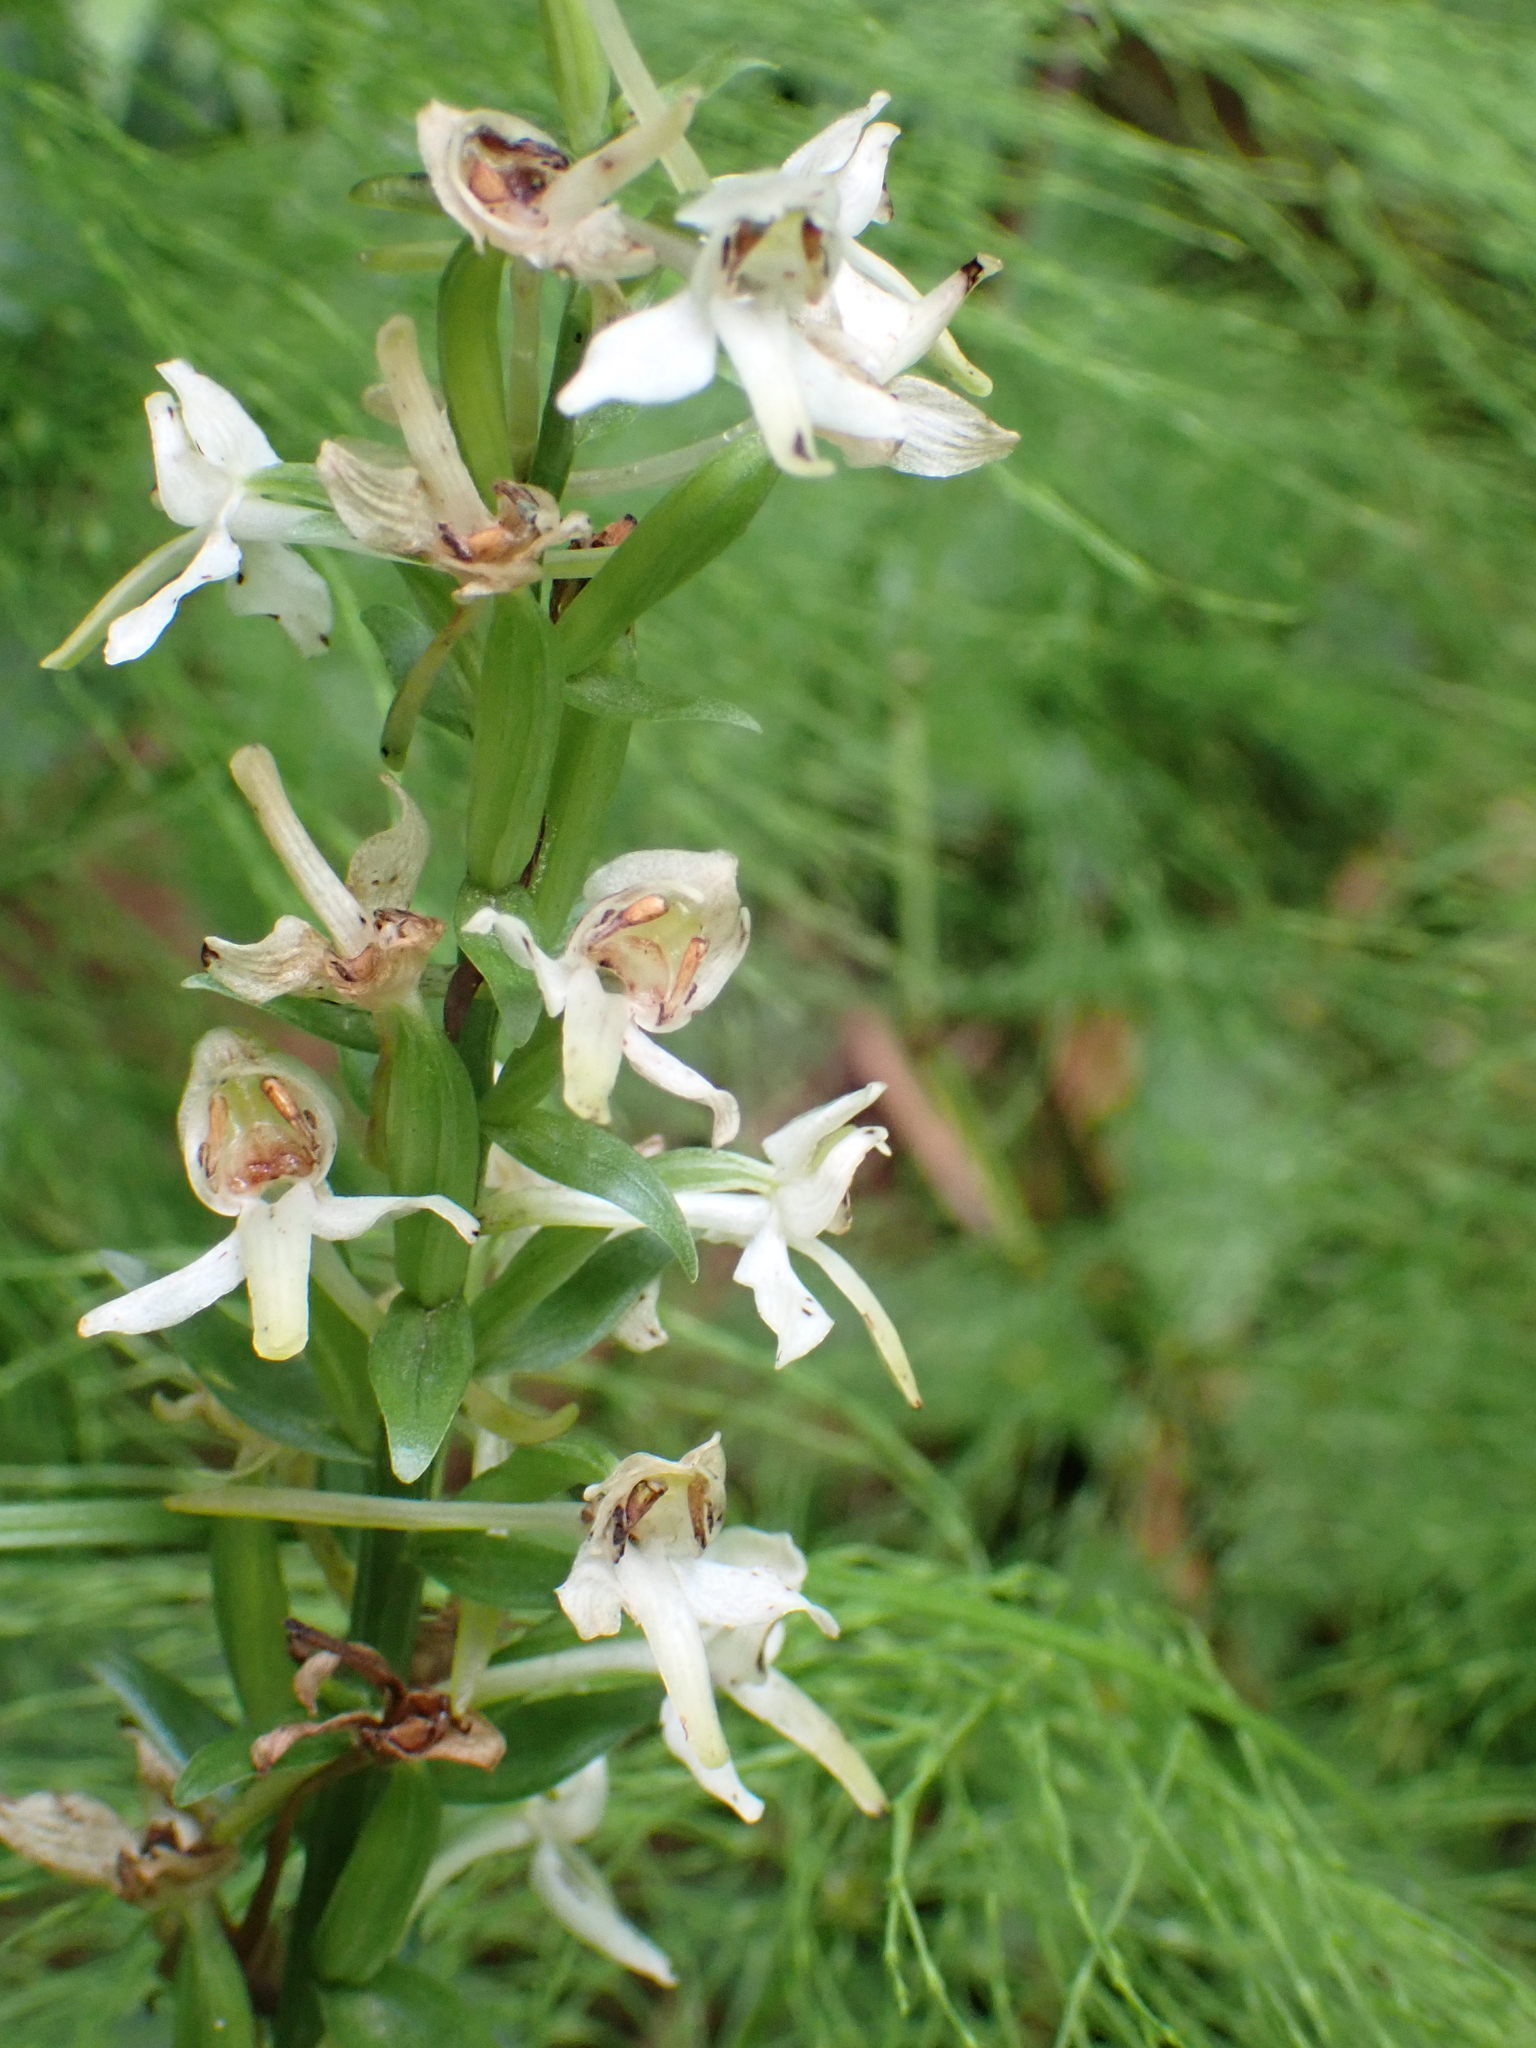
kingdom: Plantae
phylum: Tracheophyta
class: Liliopsida
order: Asparagales
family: Orchidaceae
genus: Platanthera
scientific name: Platanthera chlorantha
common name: Greater butterfly-orchid
